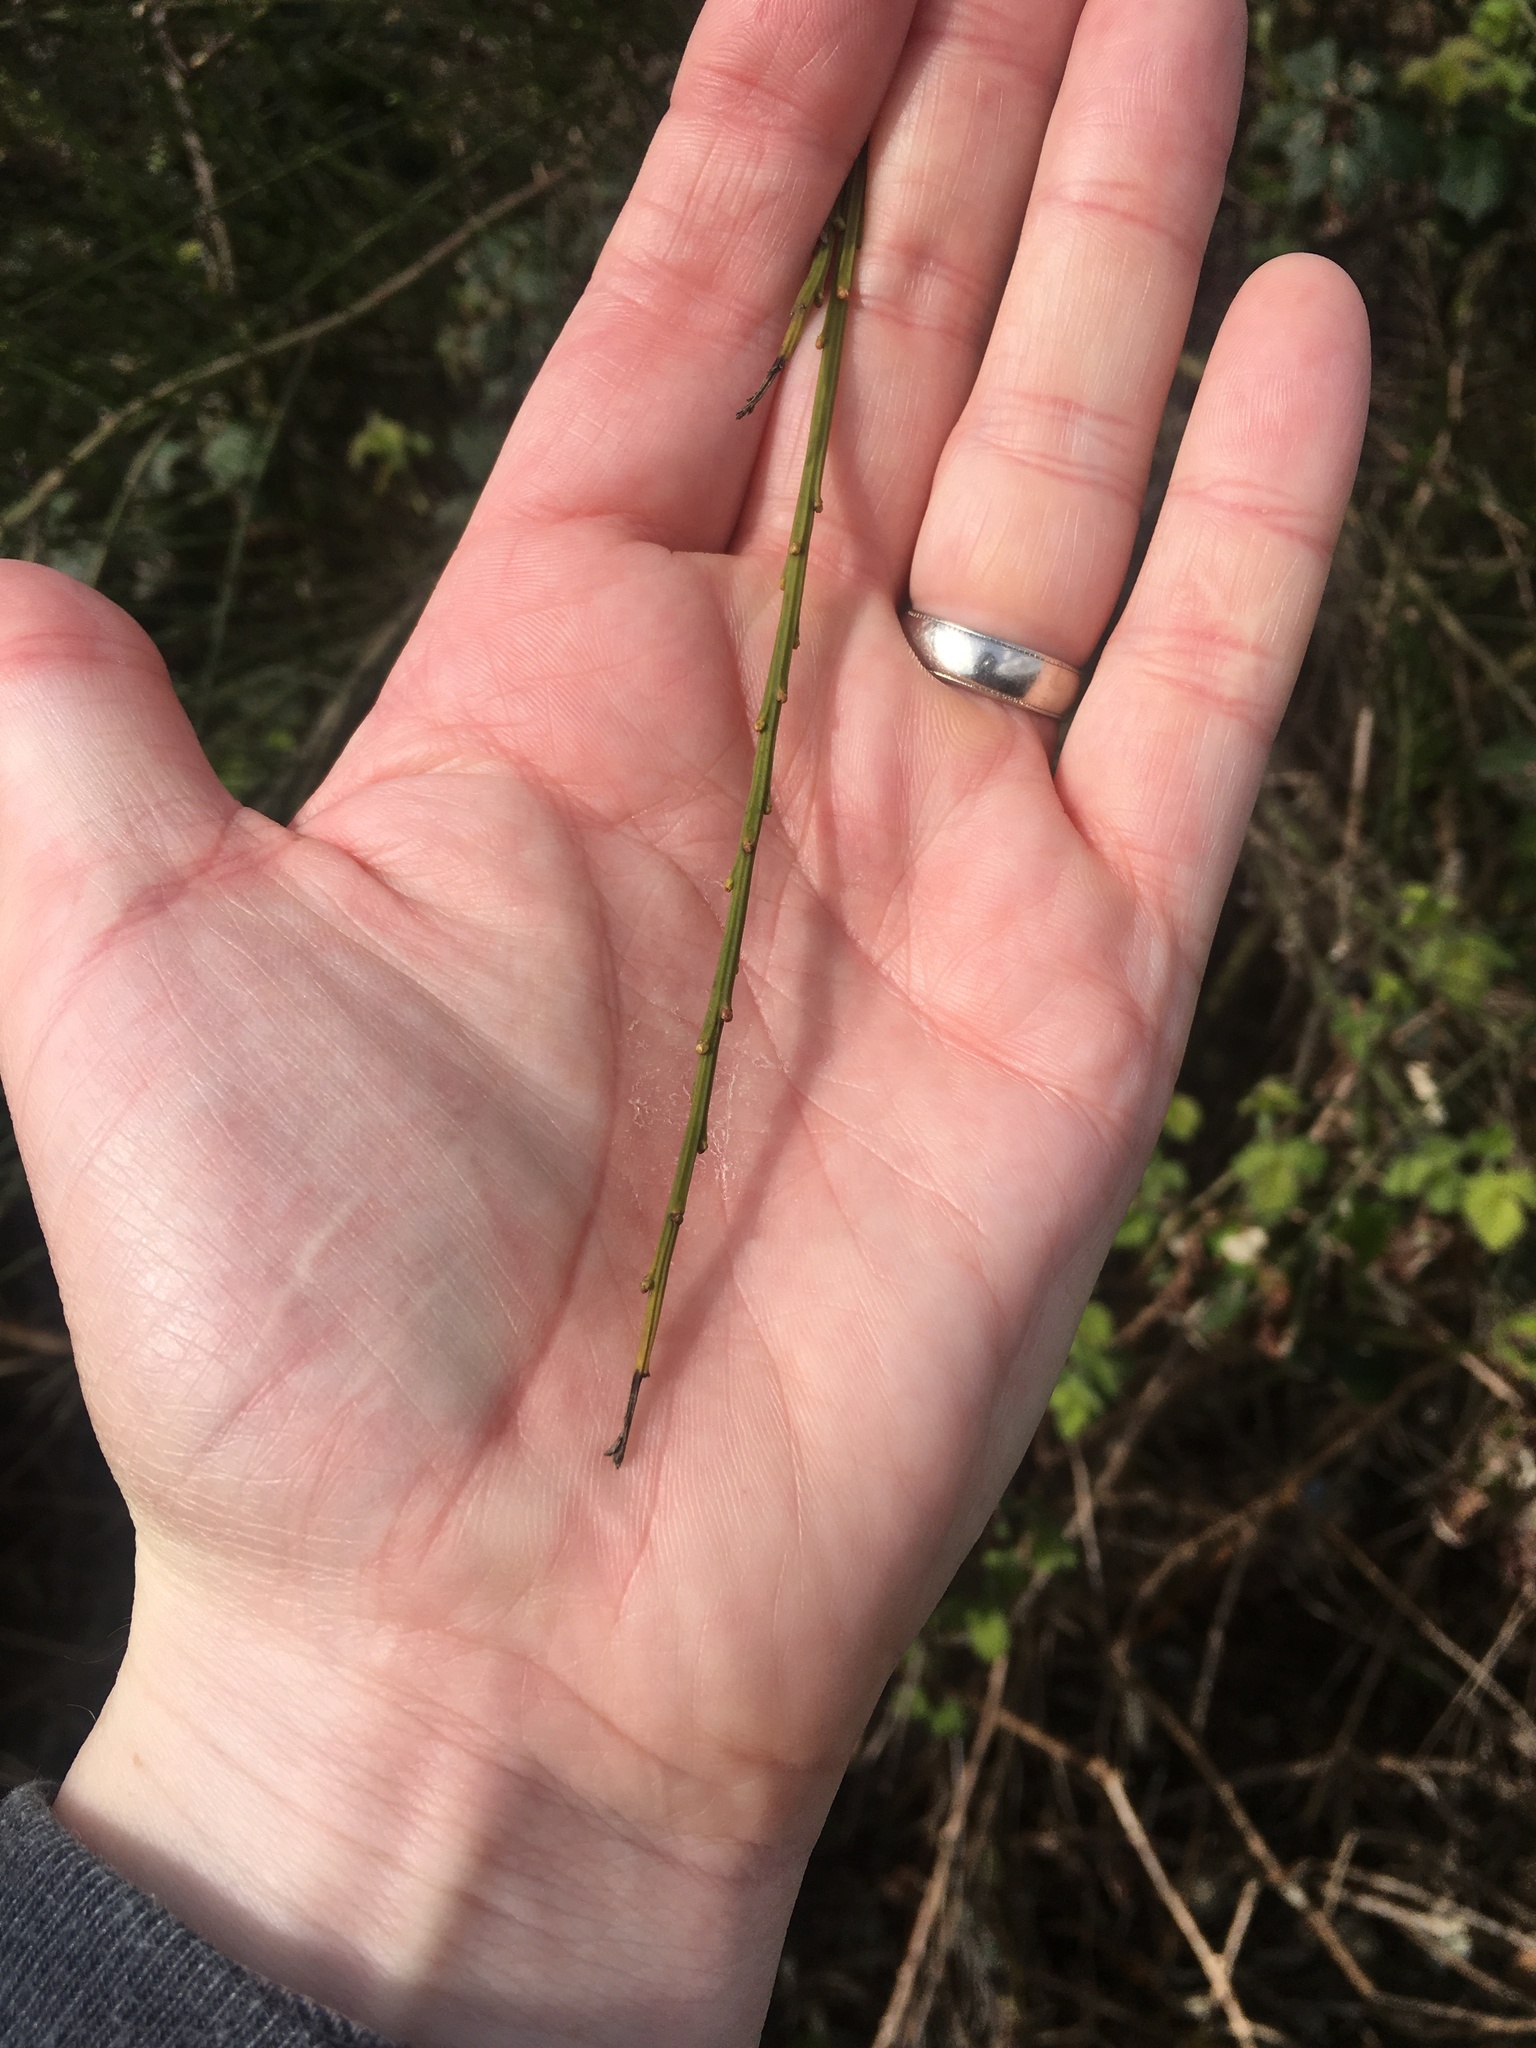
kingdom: Plantae
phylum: Tracheophyta
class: Magnoliopsida
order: Fabales
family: Fabaceae
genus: Cytisus
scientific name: Cytisus scoparius
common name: Scotch broom
